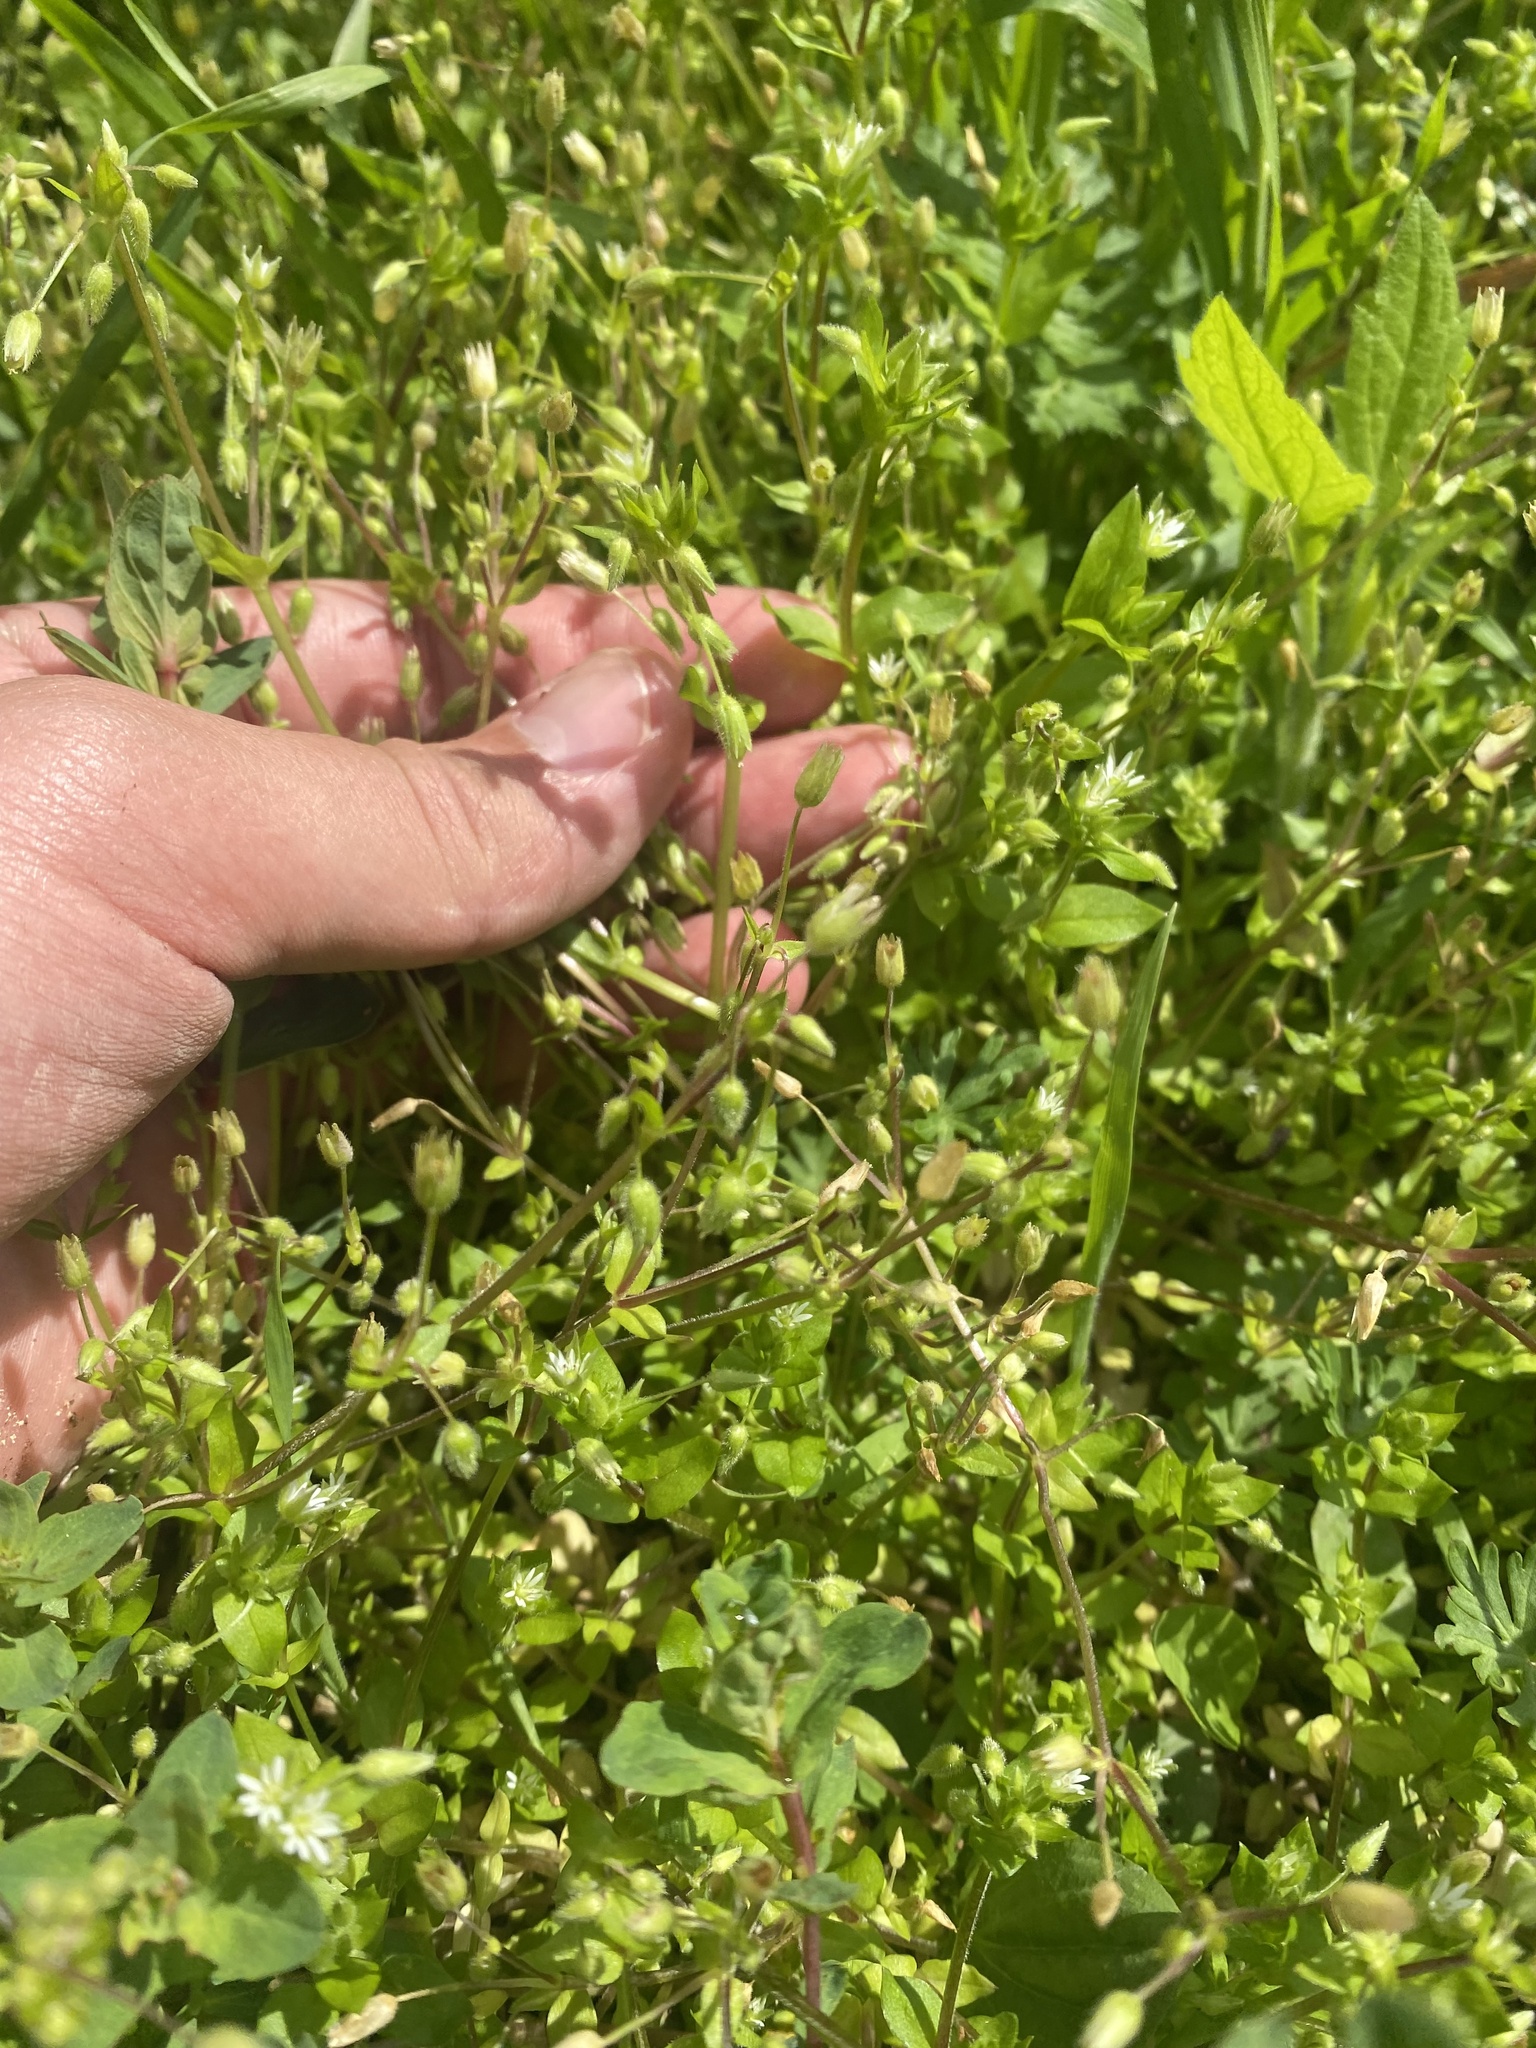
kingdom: Plantae
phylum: Tracheophyta
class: Magnoliopsida
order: Caryophyllales
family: Caryophyllaceae
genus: Stellaria
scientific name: Stellaria media
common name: Common chickweed
